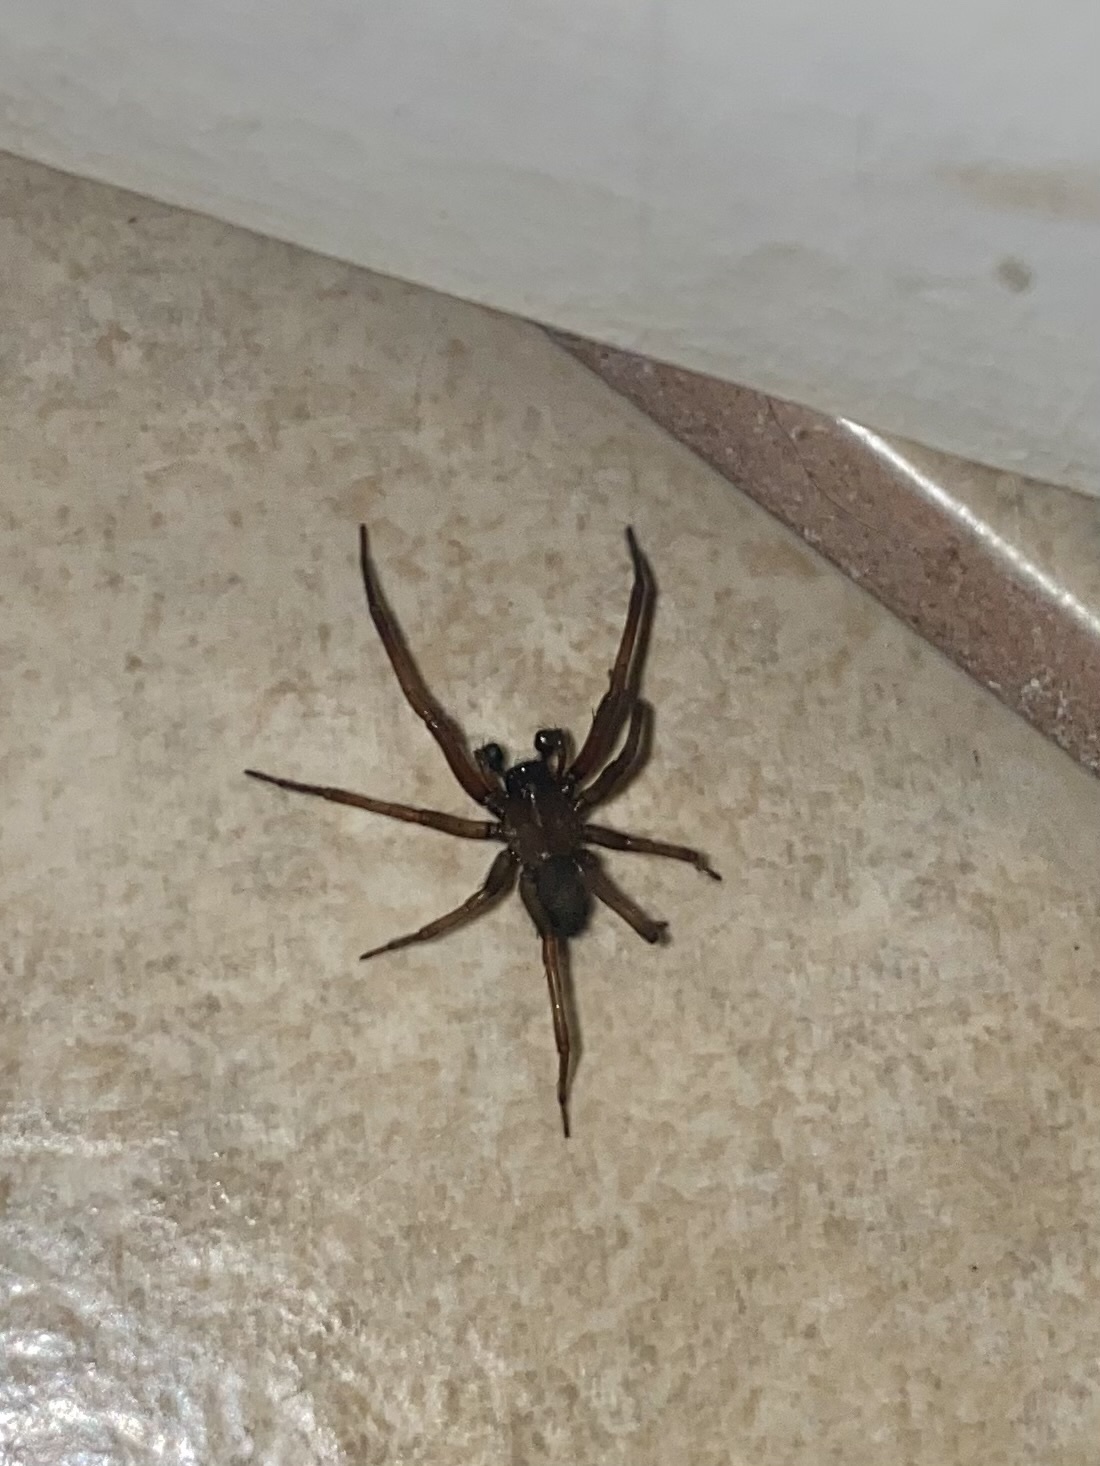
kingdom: Animalia
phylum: Arthropoda
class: Arachnida
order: Araneae
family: Desidae
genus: Metaltella
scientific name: Metaltella simoni
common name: Cribellate spider
